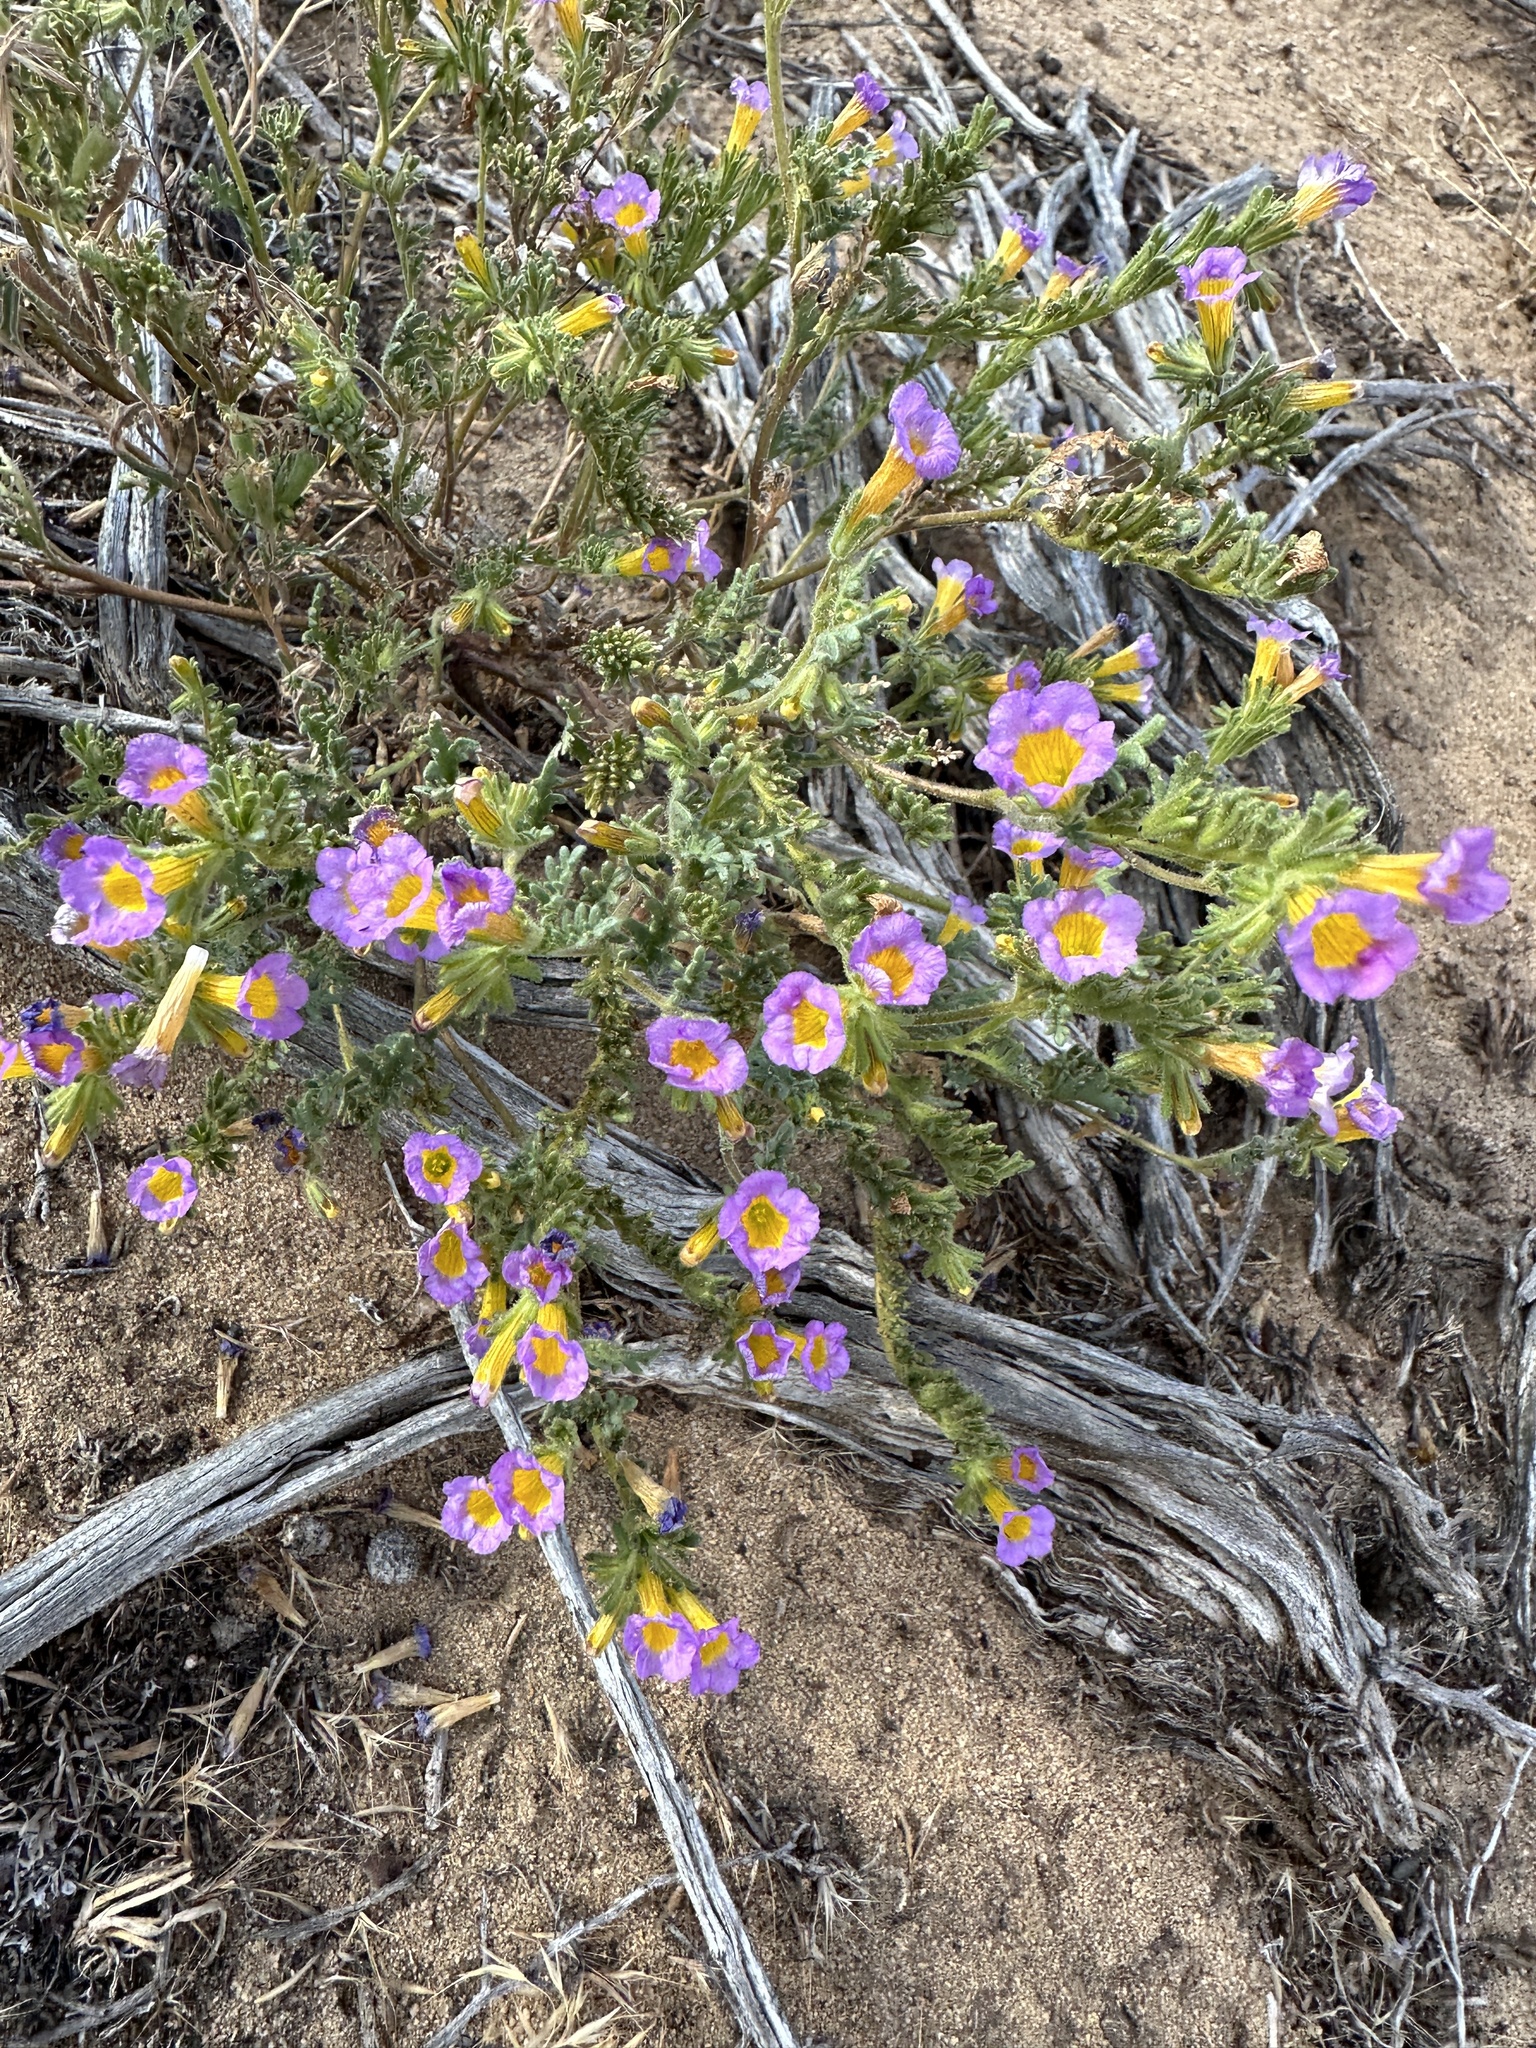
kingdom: Plantae
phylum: Tracheophyta
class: Magnoliopsida
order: Boraginales
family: Hydrophyllaceae
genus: Phacelia
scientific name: Phacelia bicolor
